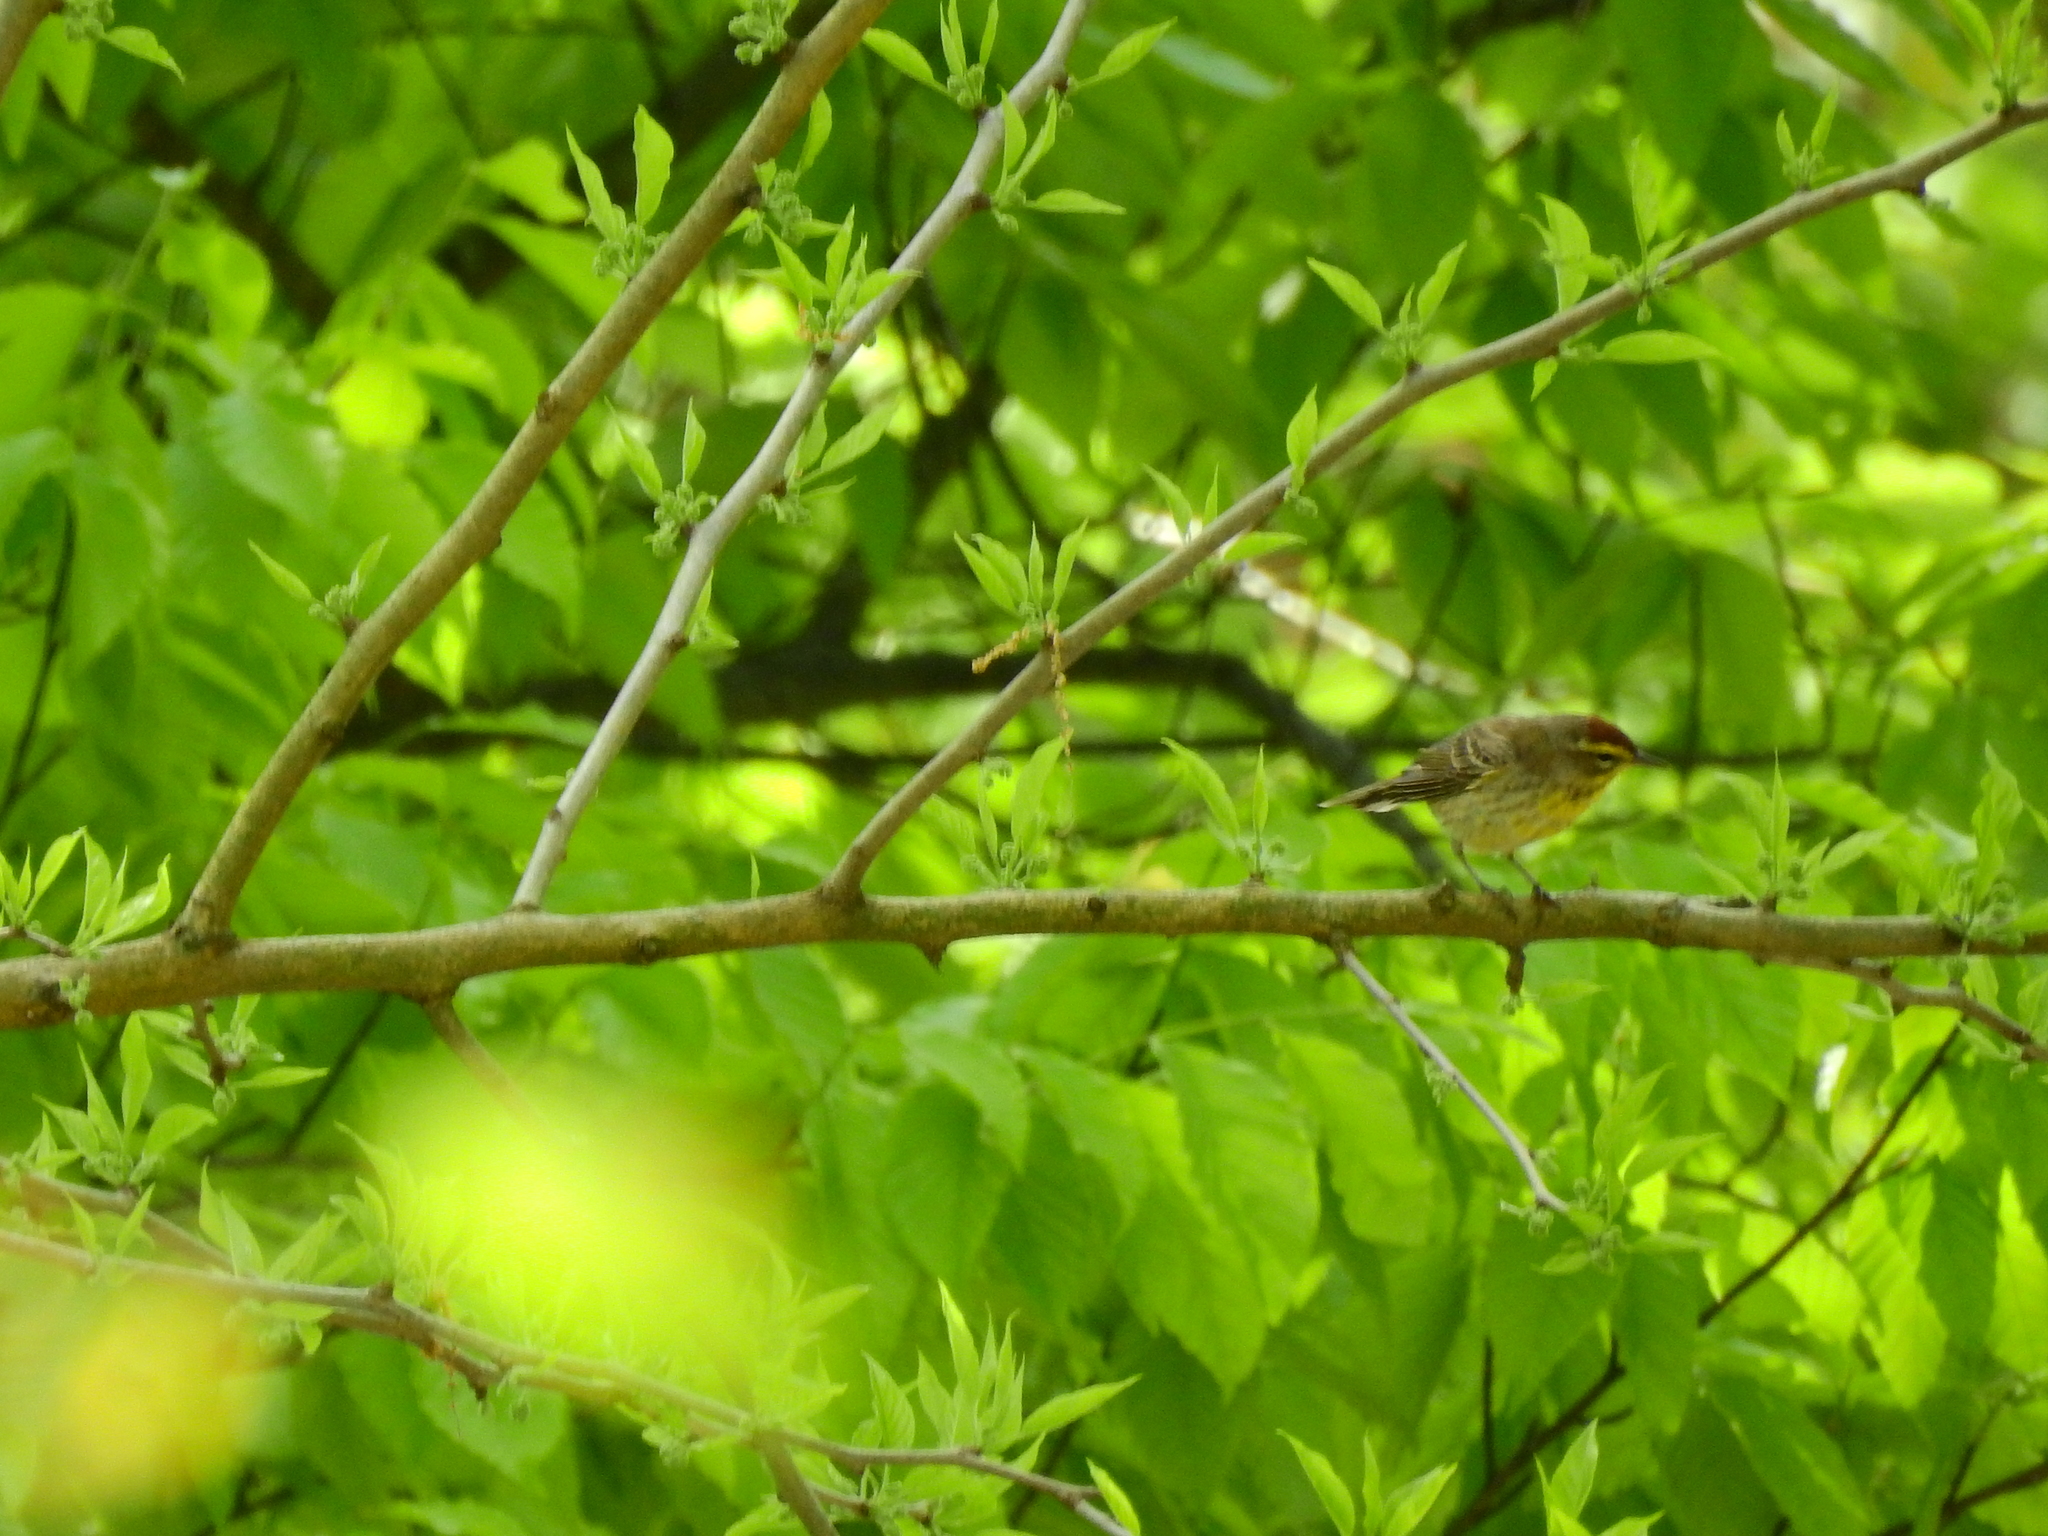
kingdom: Animalia
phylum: Chordata
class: Aves
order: Passeriformes
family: Parulidae
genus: Setophaga
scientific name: Setophaga palmarum
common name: Palm warbler
